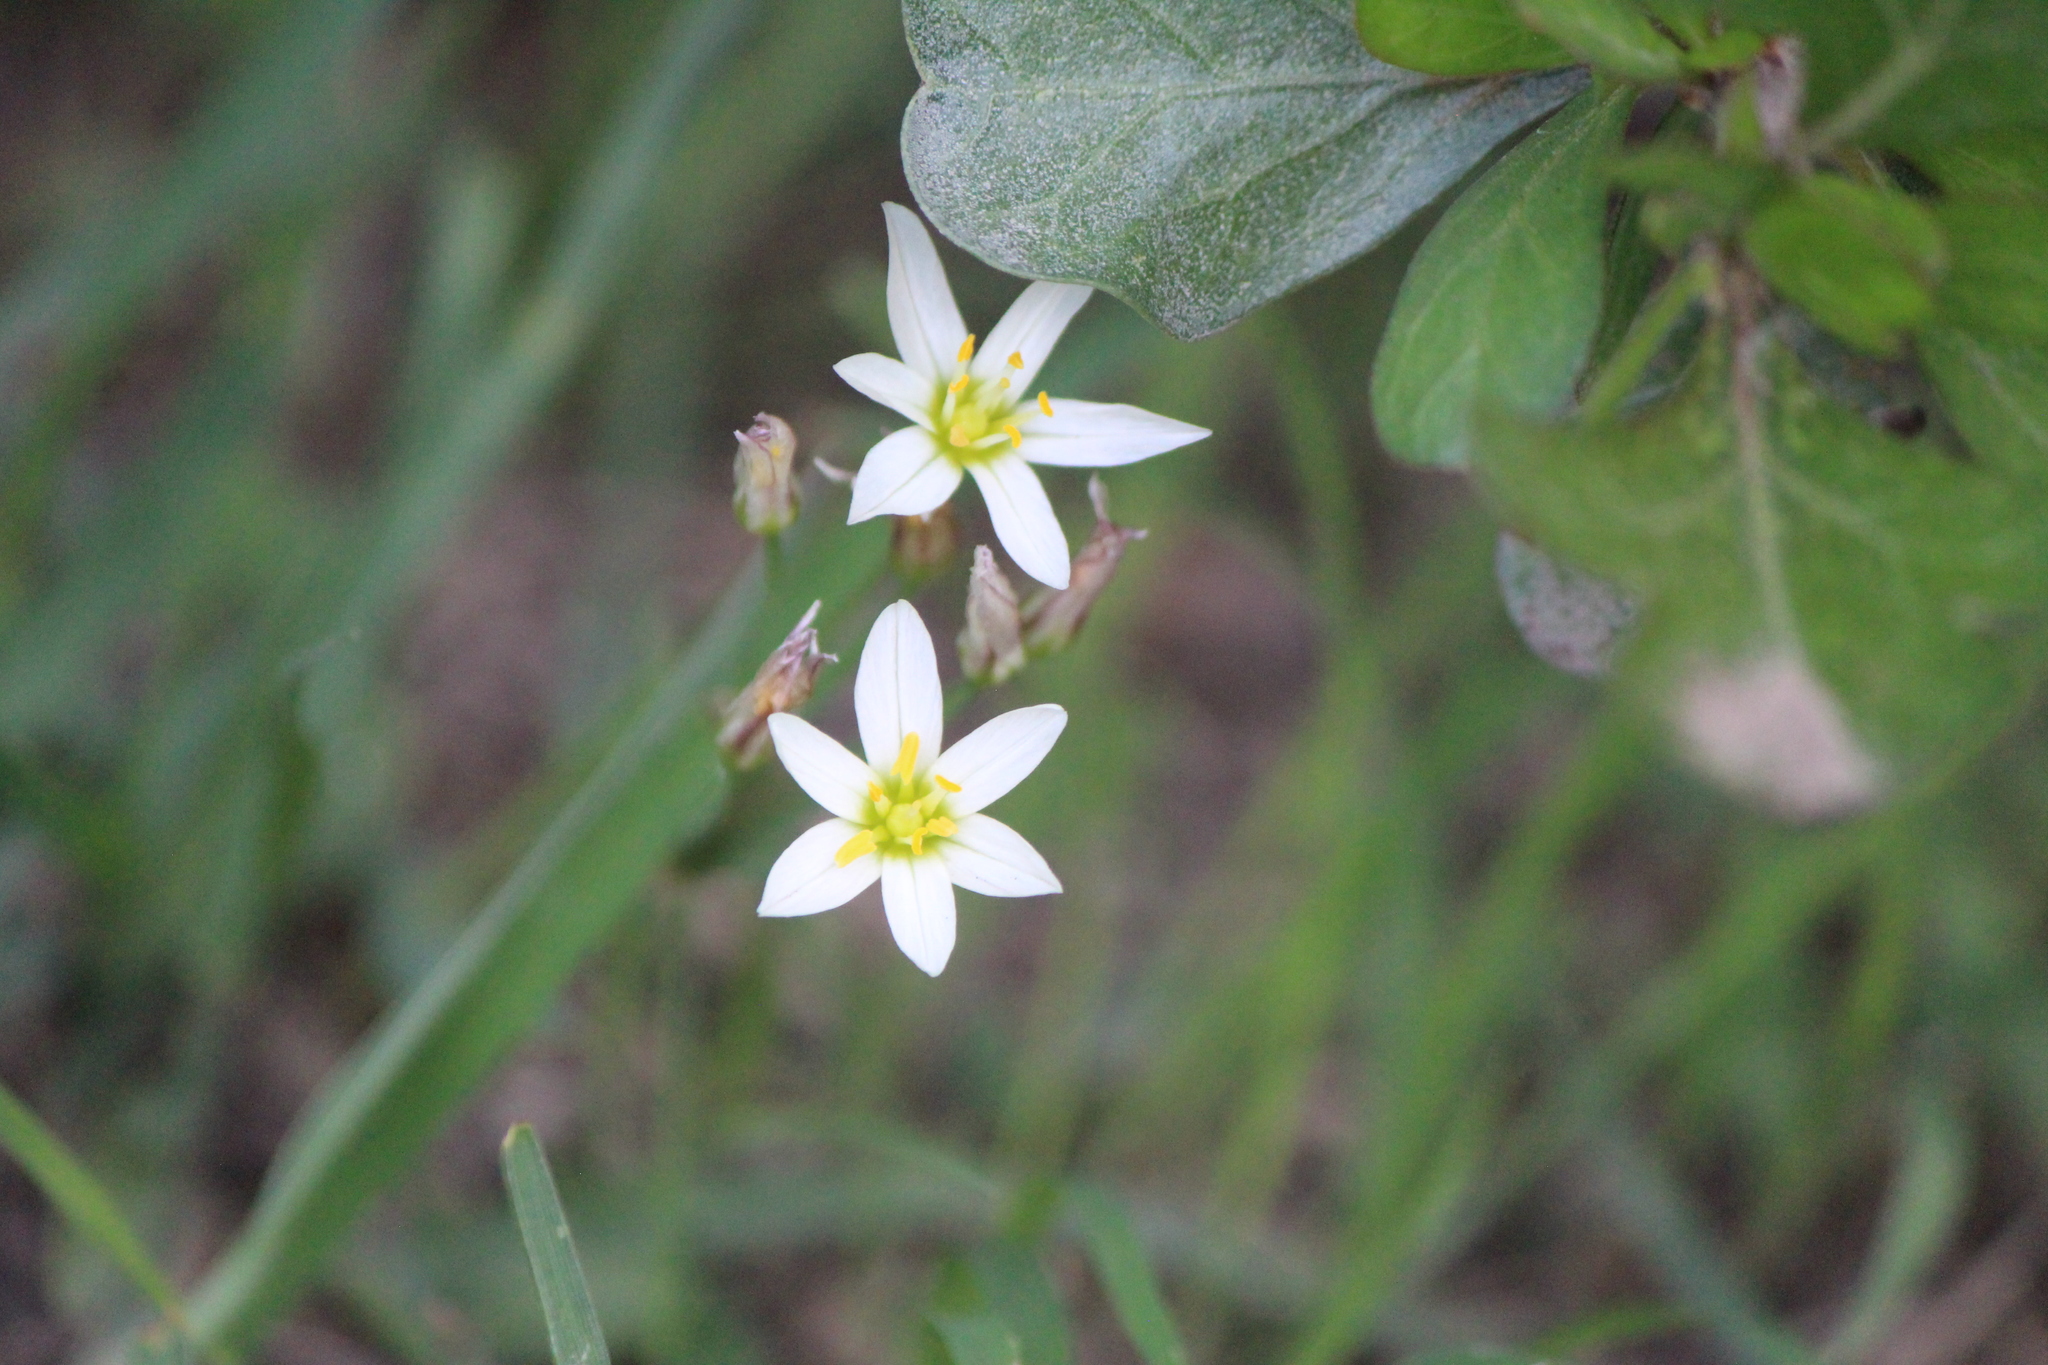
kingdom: Plantae
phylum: Tracheophyta
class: Liliopsida
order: Asparagales
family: Amaryllidaceae
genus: Nothoscordum
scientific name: Nothoscordum bivalve
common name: Crow-poison
